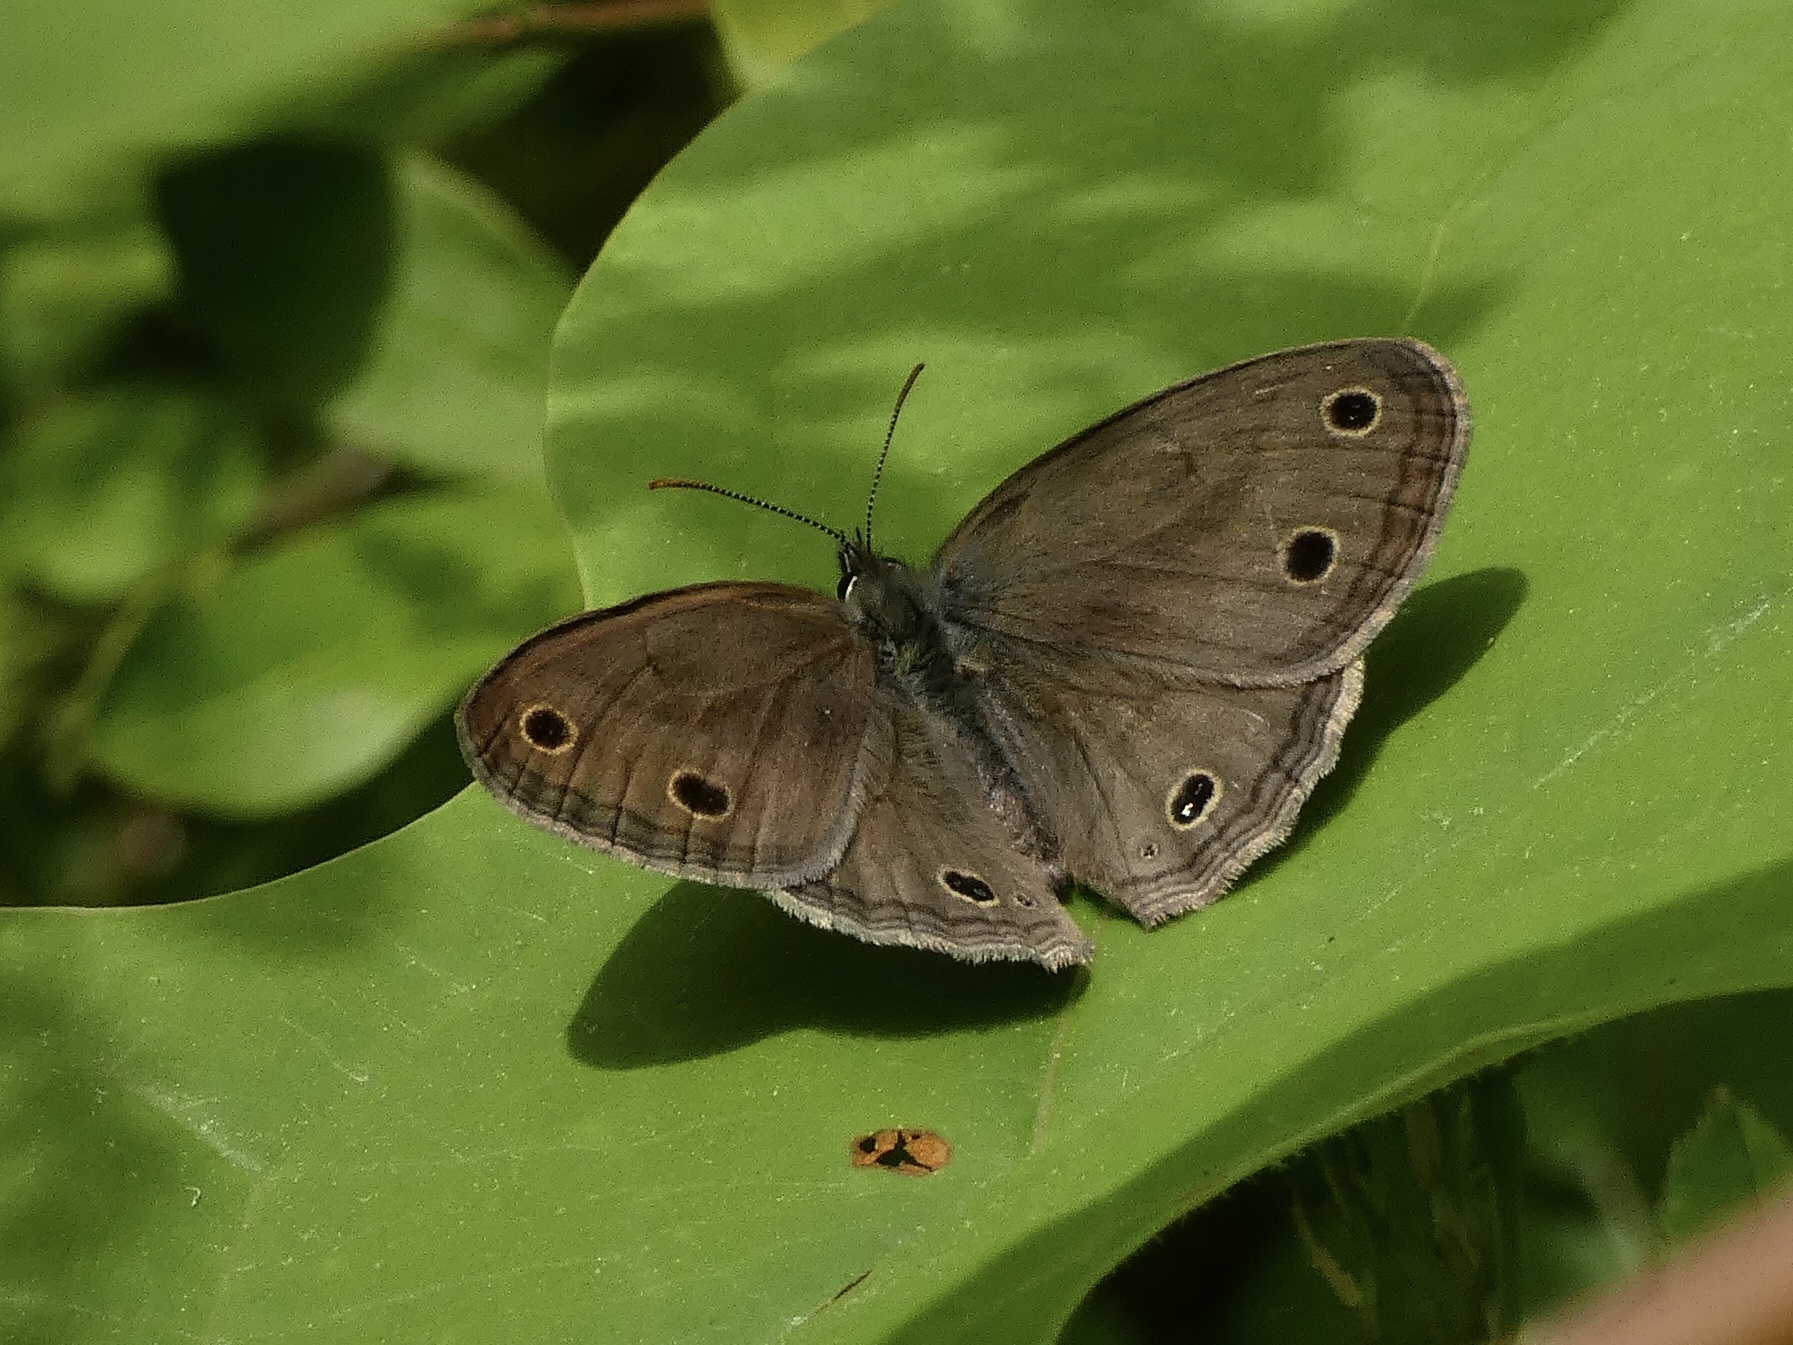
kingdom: Animalia
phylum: Arthropoda
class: Insecta
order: Lepidoptera
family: Nymphalidae
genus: Euptychia
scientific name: Euptychia cymela
